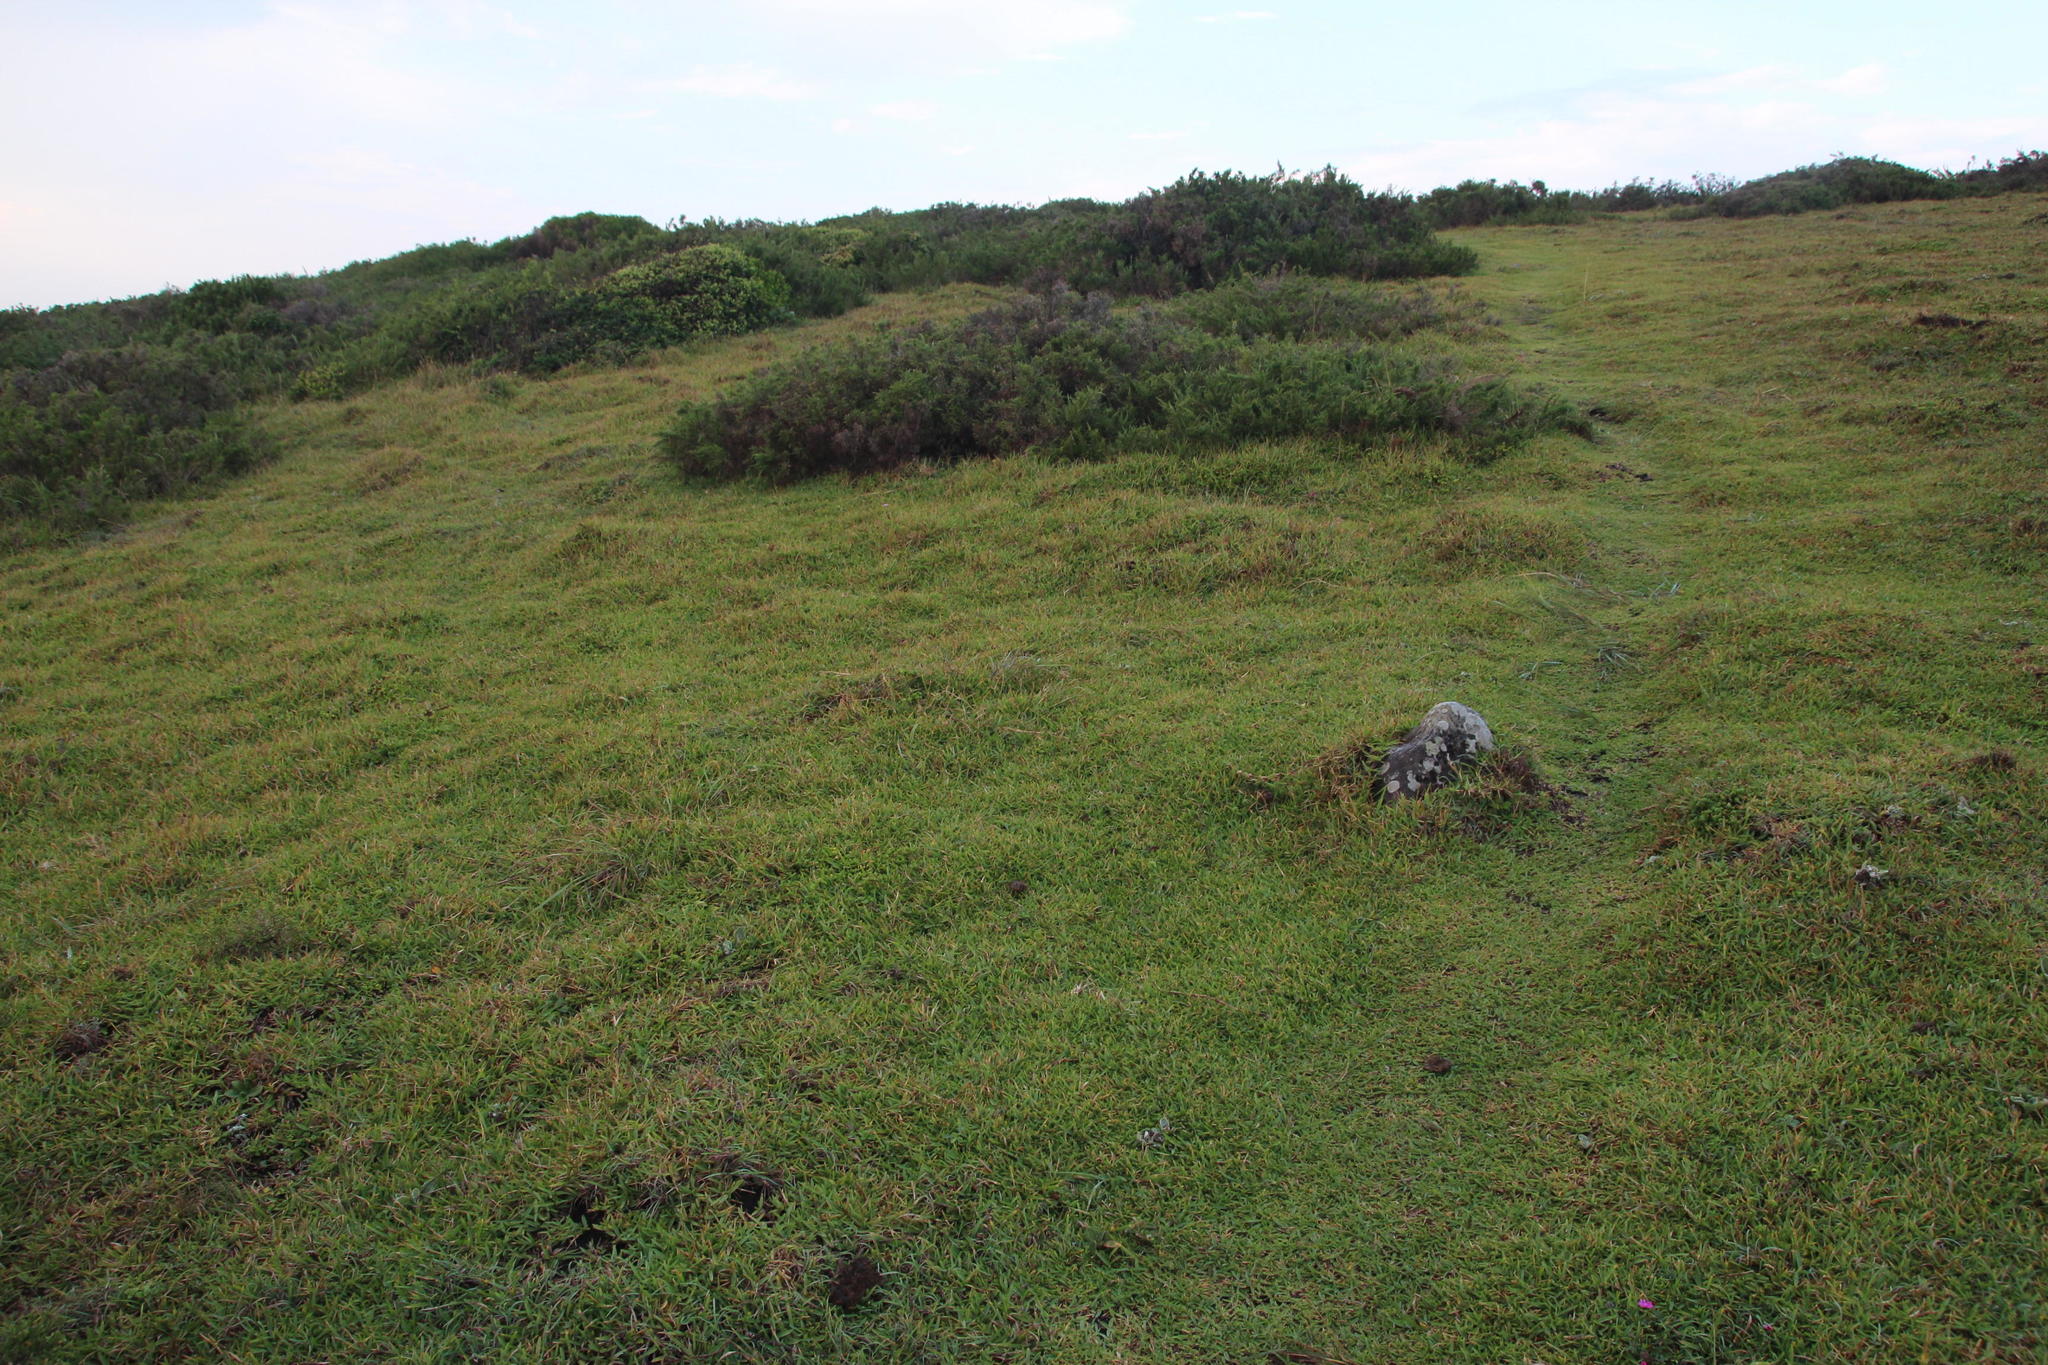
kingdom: Plantae
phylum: Tracheophyta
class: Liliopsida
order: Poales
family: Poaceae
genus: Stenotaphrum
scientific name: Stenotaphrum secundatum
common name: St. augustine grass
